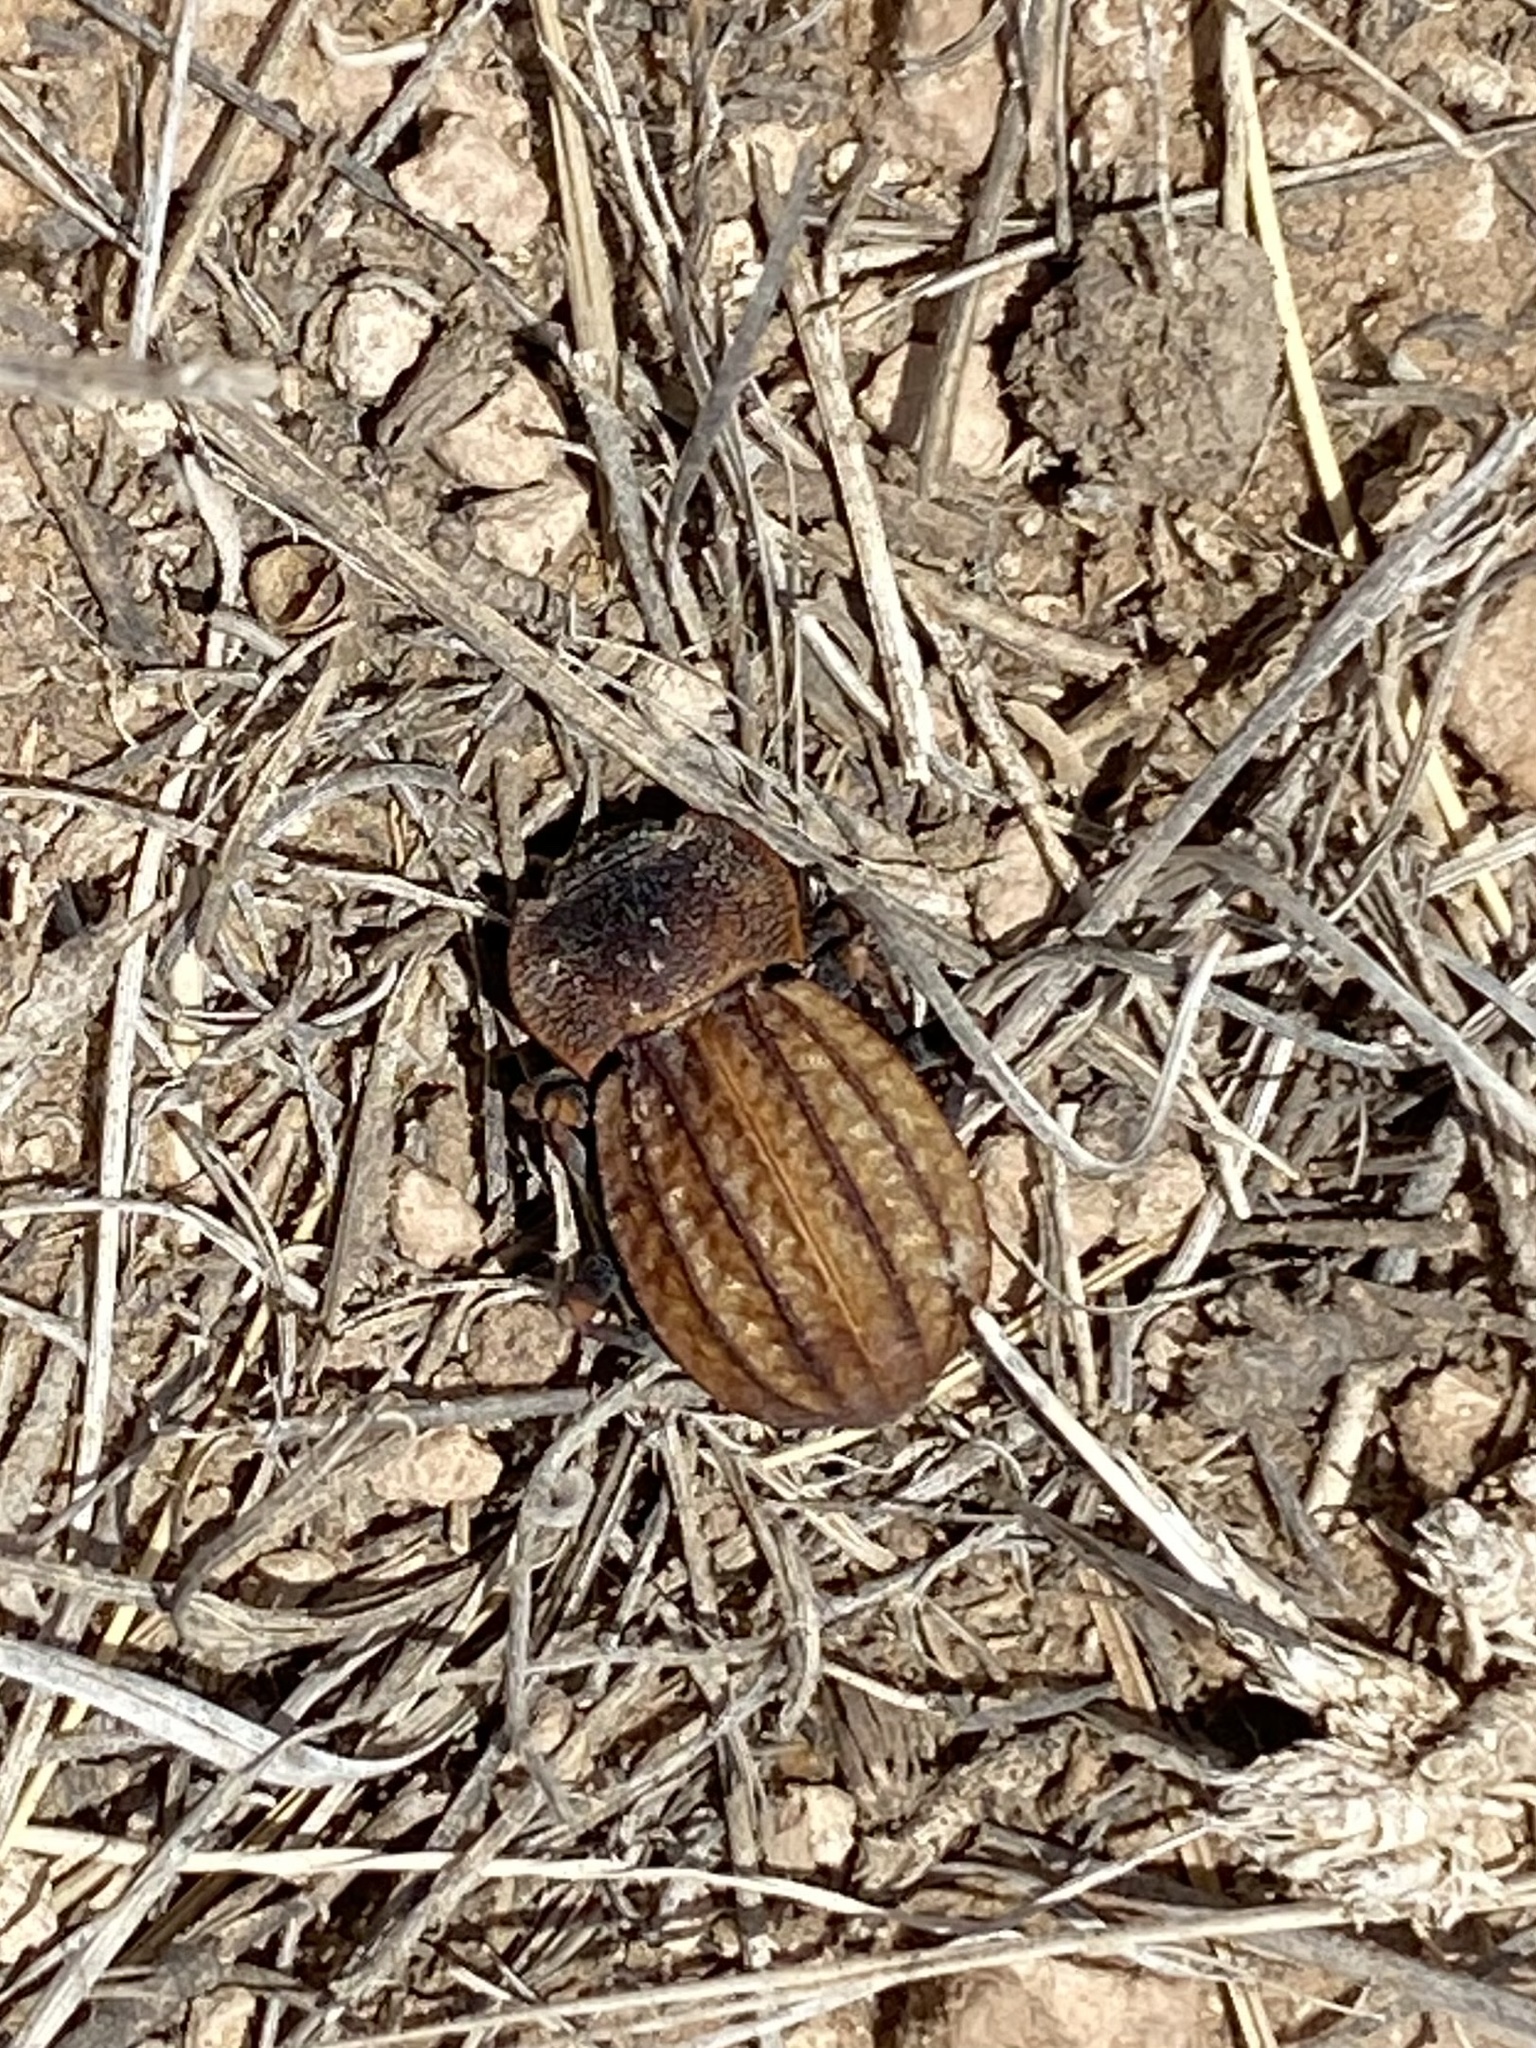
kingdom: Animalia
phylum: Arthropoda
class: Insecta
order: Coleoptera
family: Tenebrionidae
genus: Philolithus
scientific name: Philolithus sordidus
